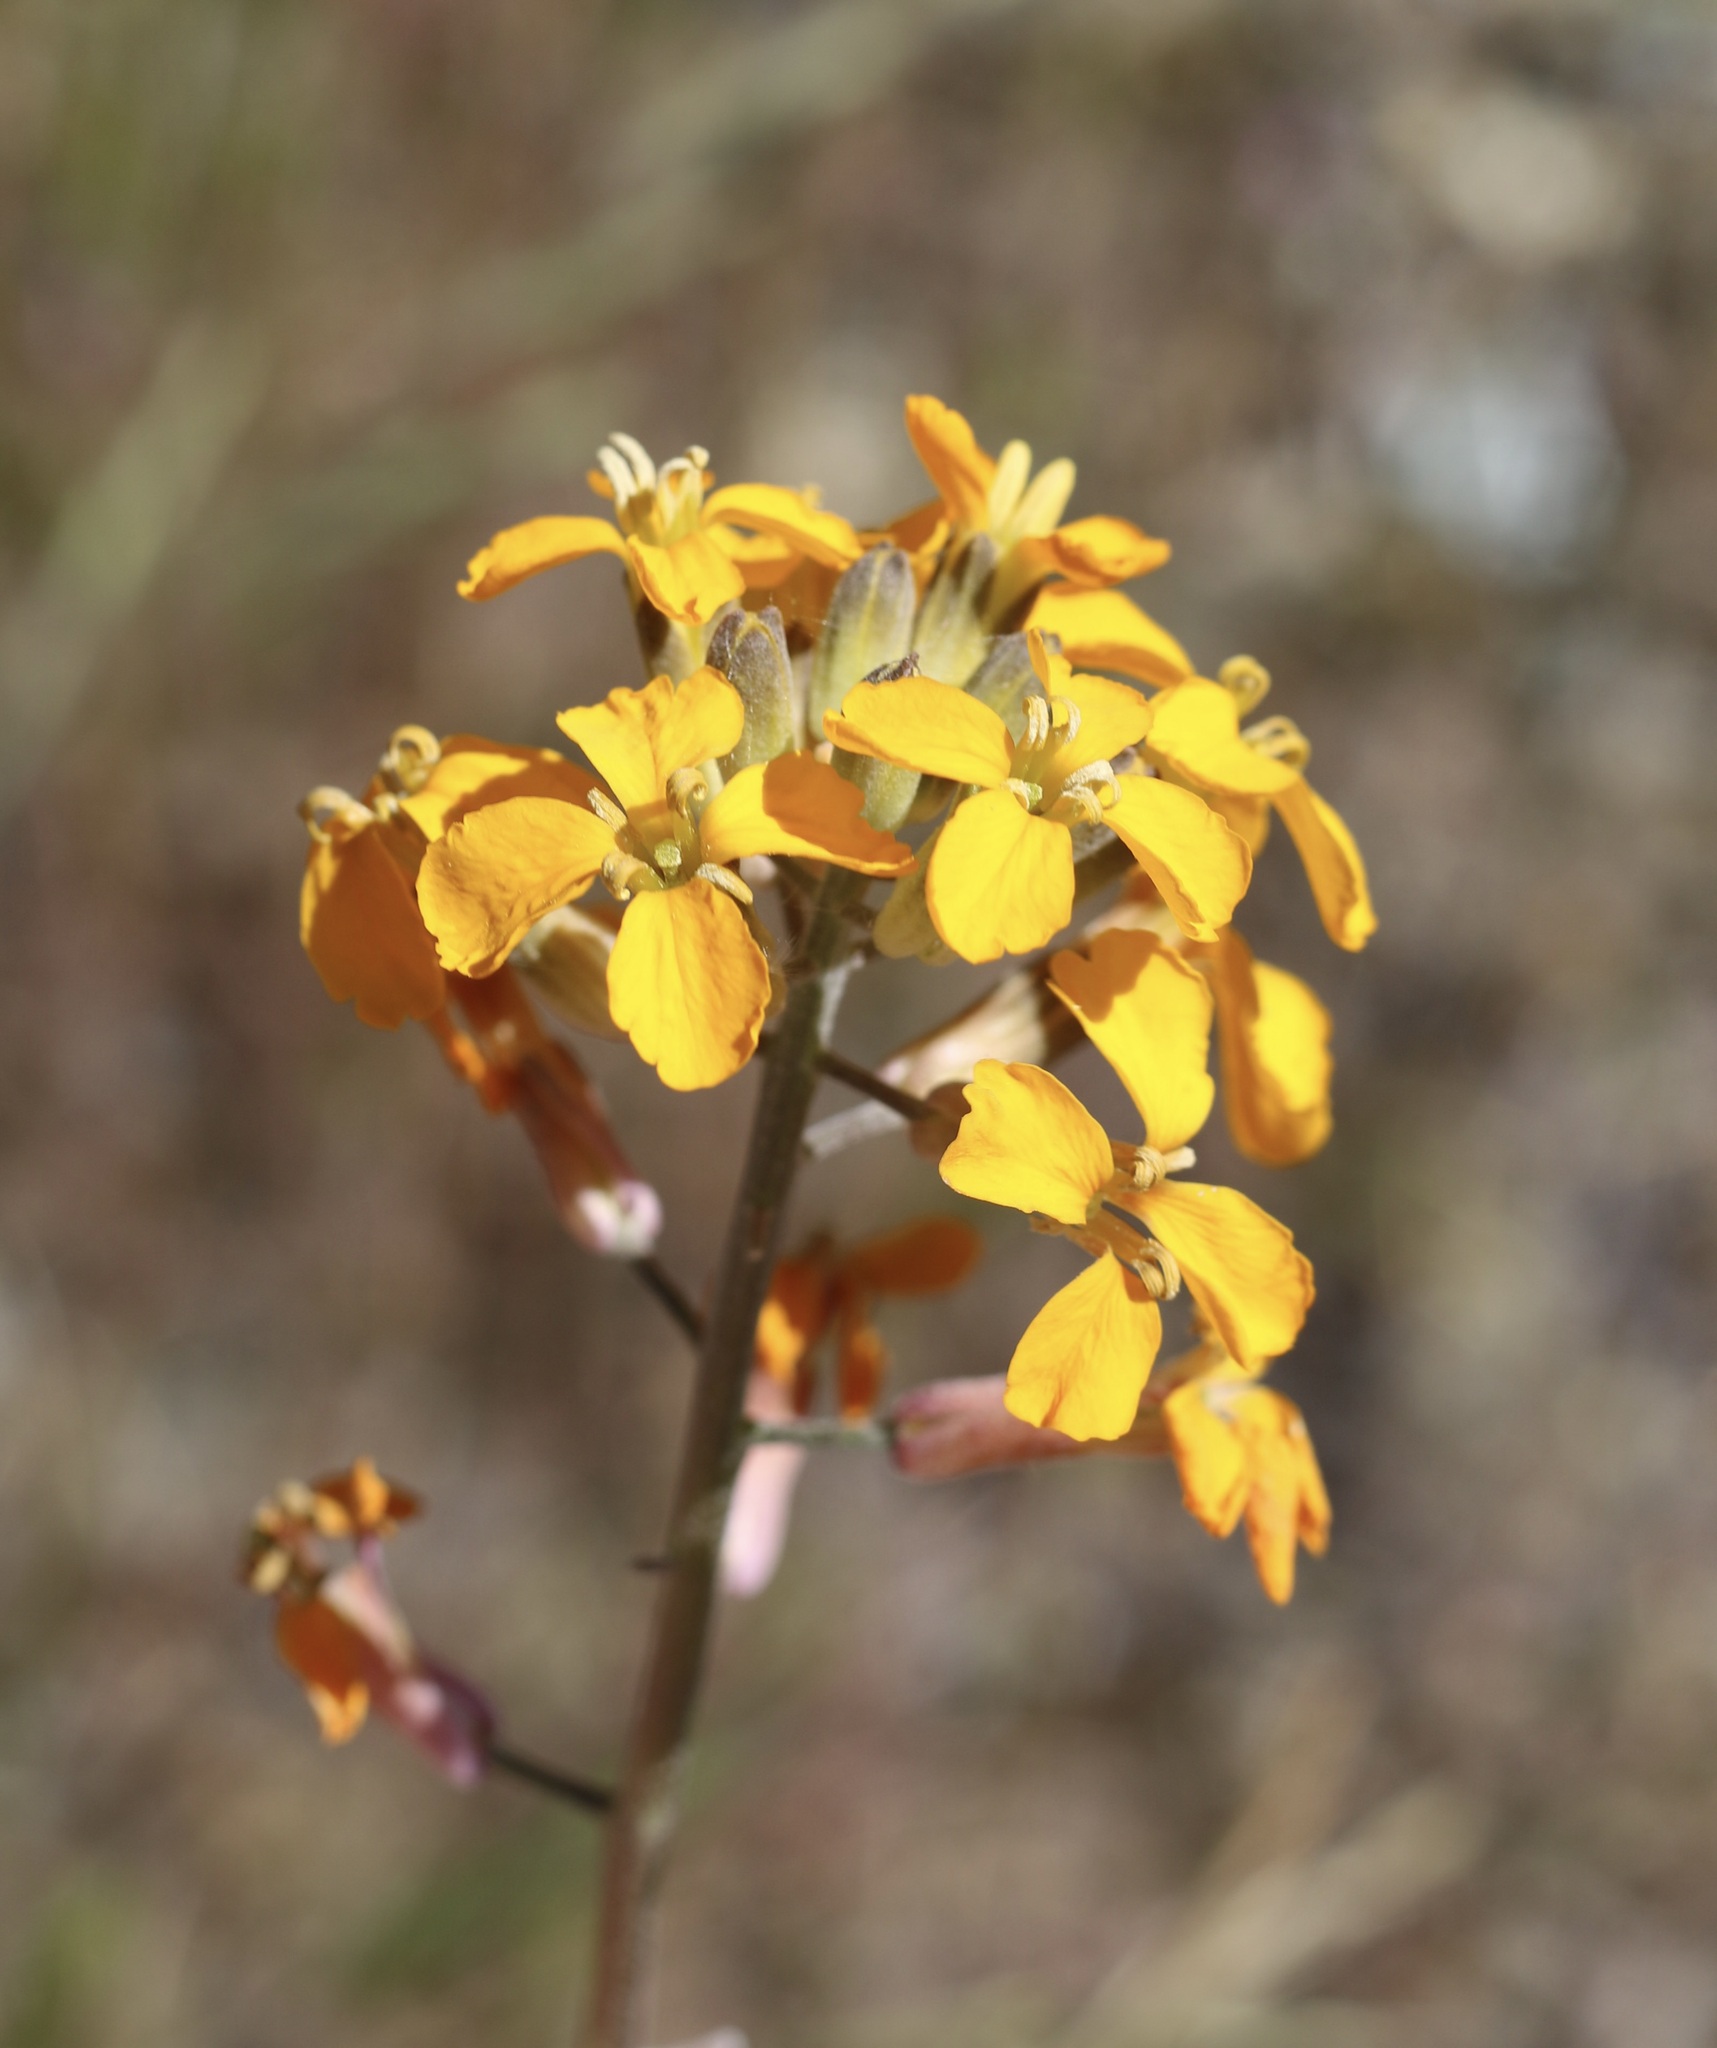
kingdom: Plantae
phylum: Tracheophyta
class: Magnoliopsida
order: Brassicales
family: Brassicaceae
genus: Erysimum
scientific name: Erysimum capitatum
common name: Western wallflower
